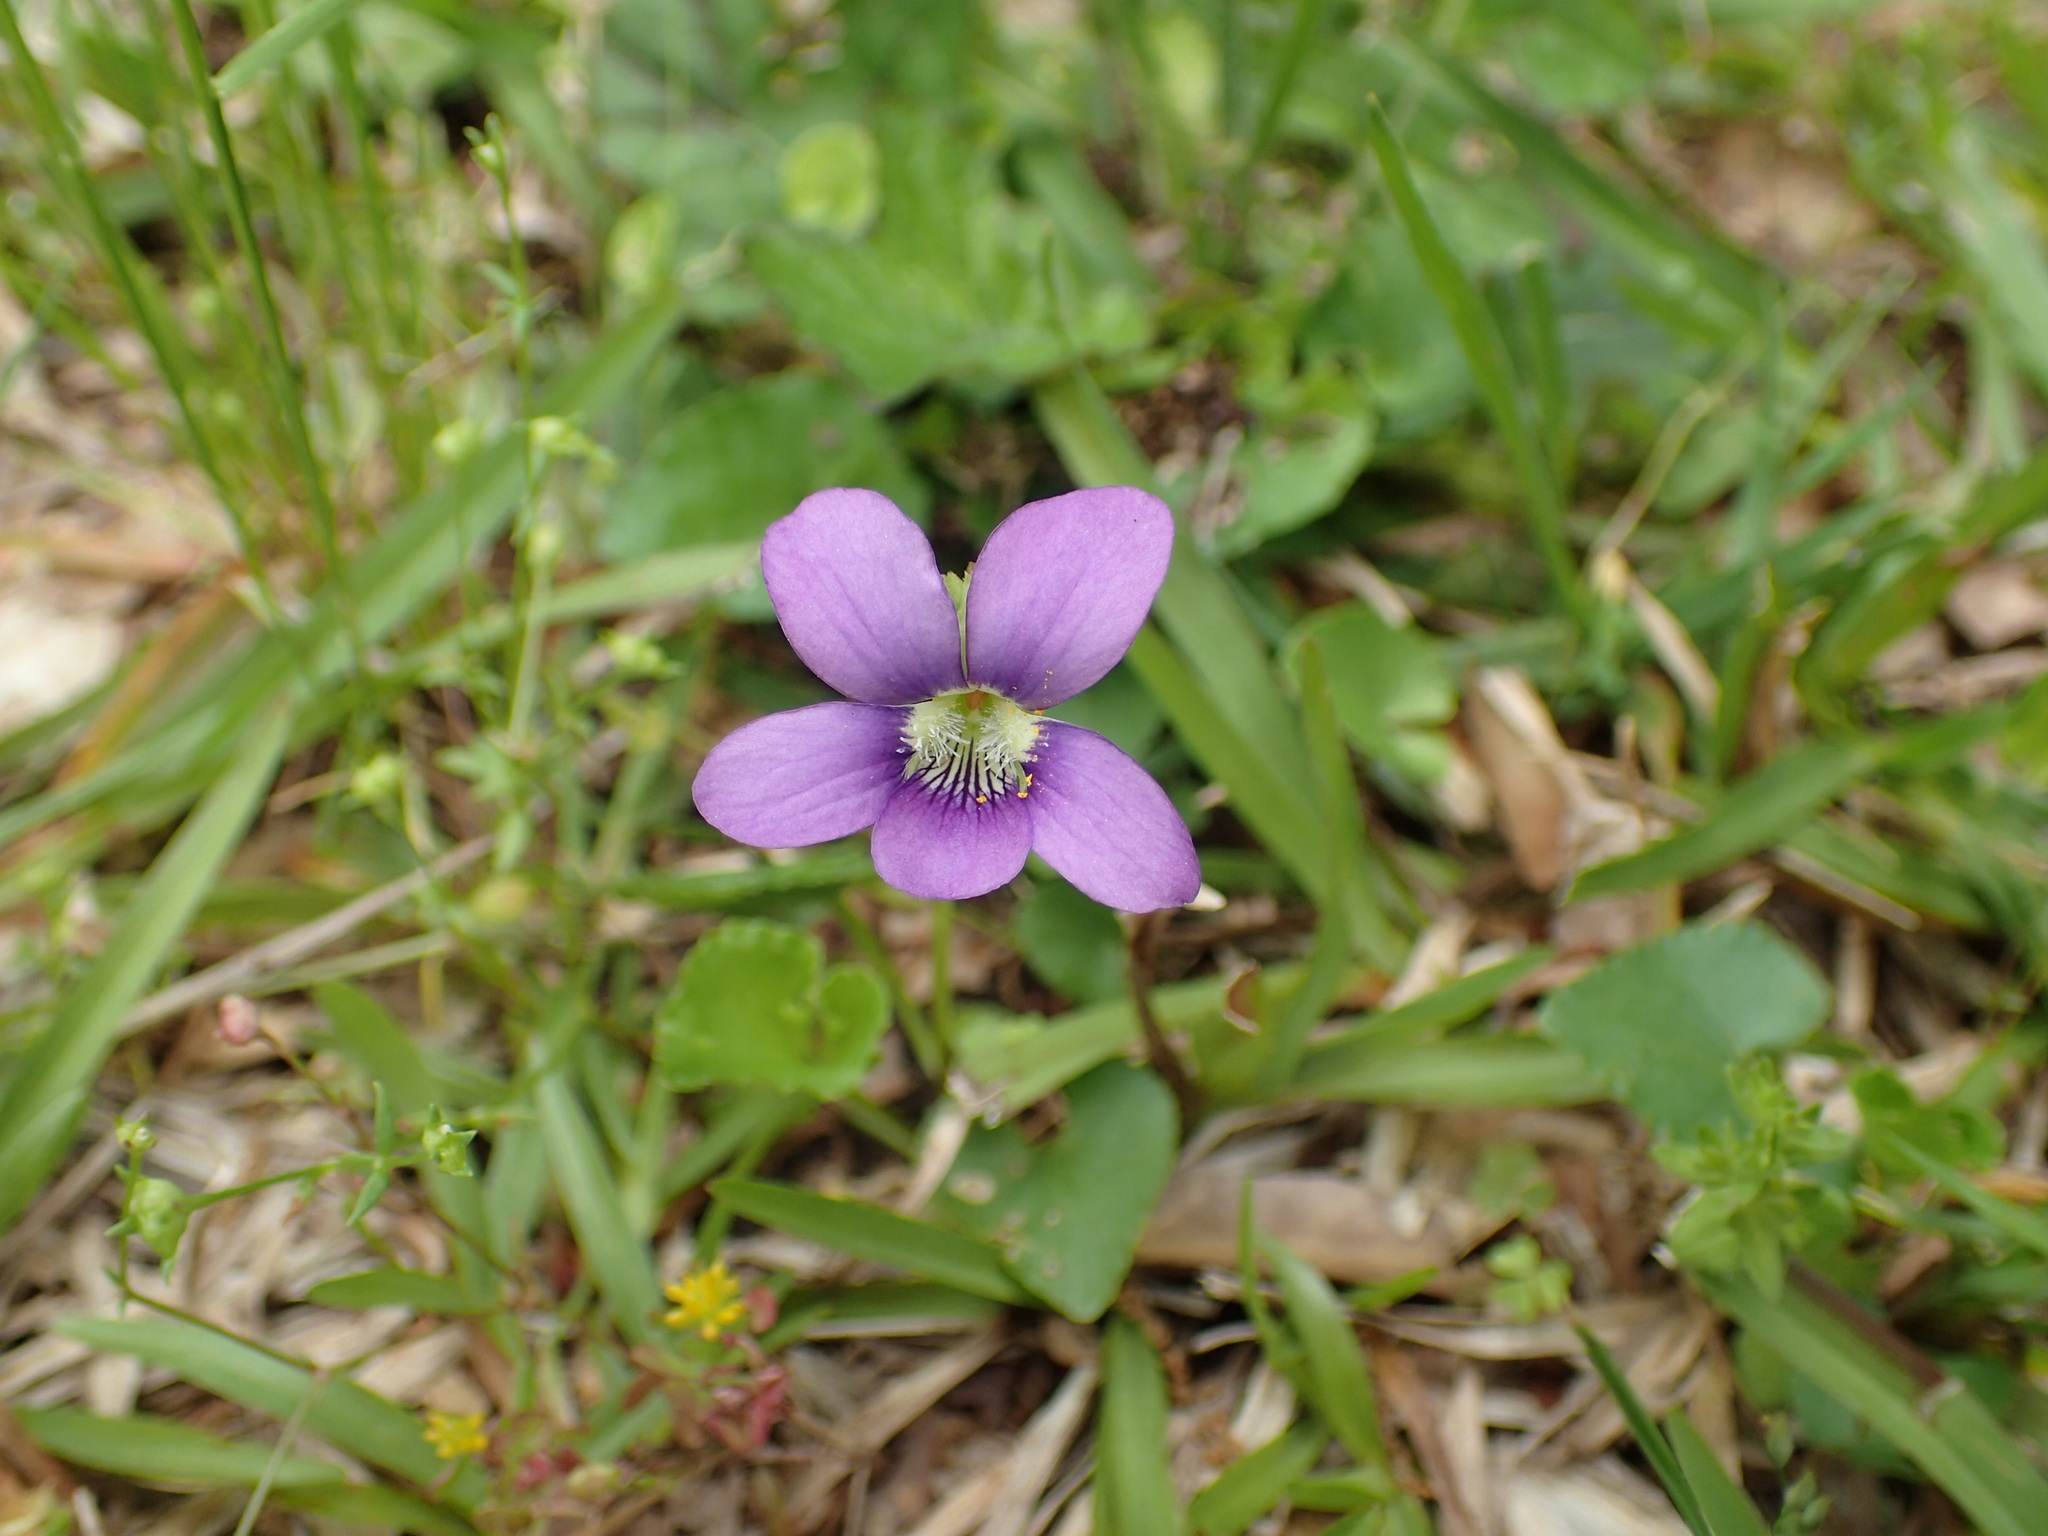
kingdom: Plantae
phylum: Tracheophyta
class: Magnoliopsida
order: Malpighiales
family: Violaceae
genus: Viola
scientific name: Viola sororia
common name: Dooryard violet
